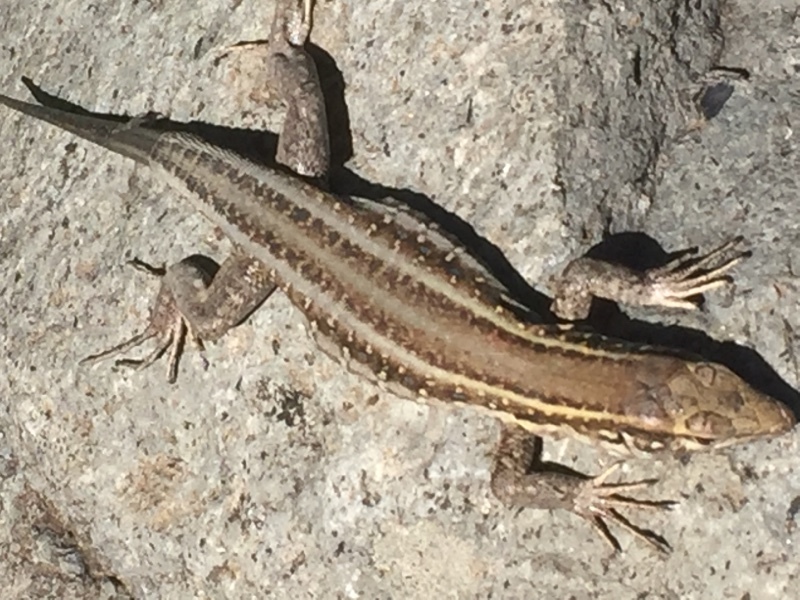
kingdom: Animalia
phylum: Chordata
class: Squamata
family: Lacertidae
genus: Gallotia
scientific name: Gallotia galloti
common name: Gallot's lizard
